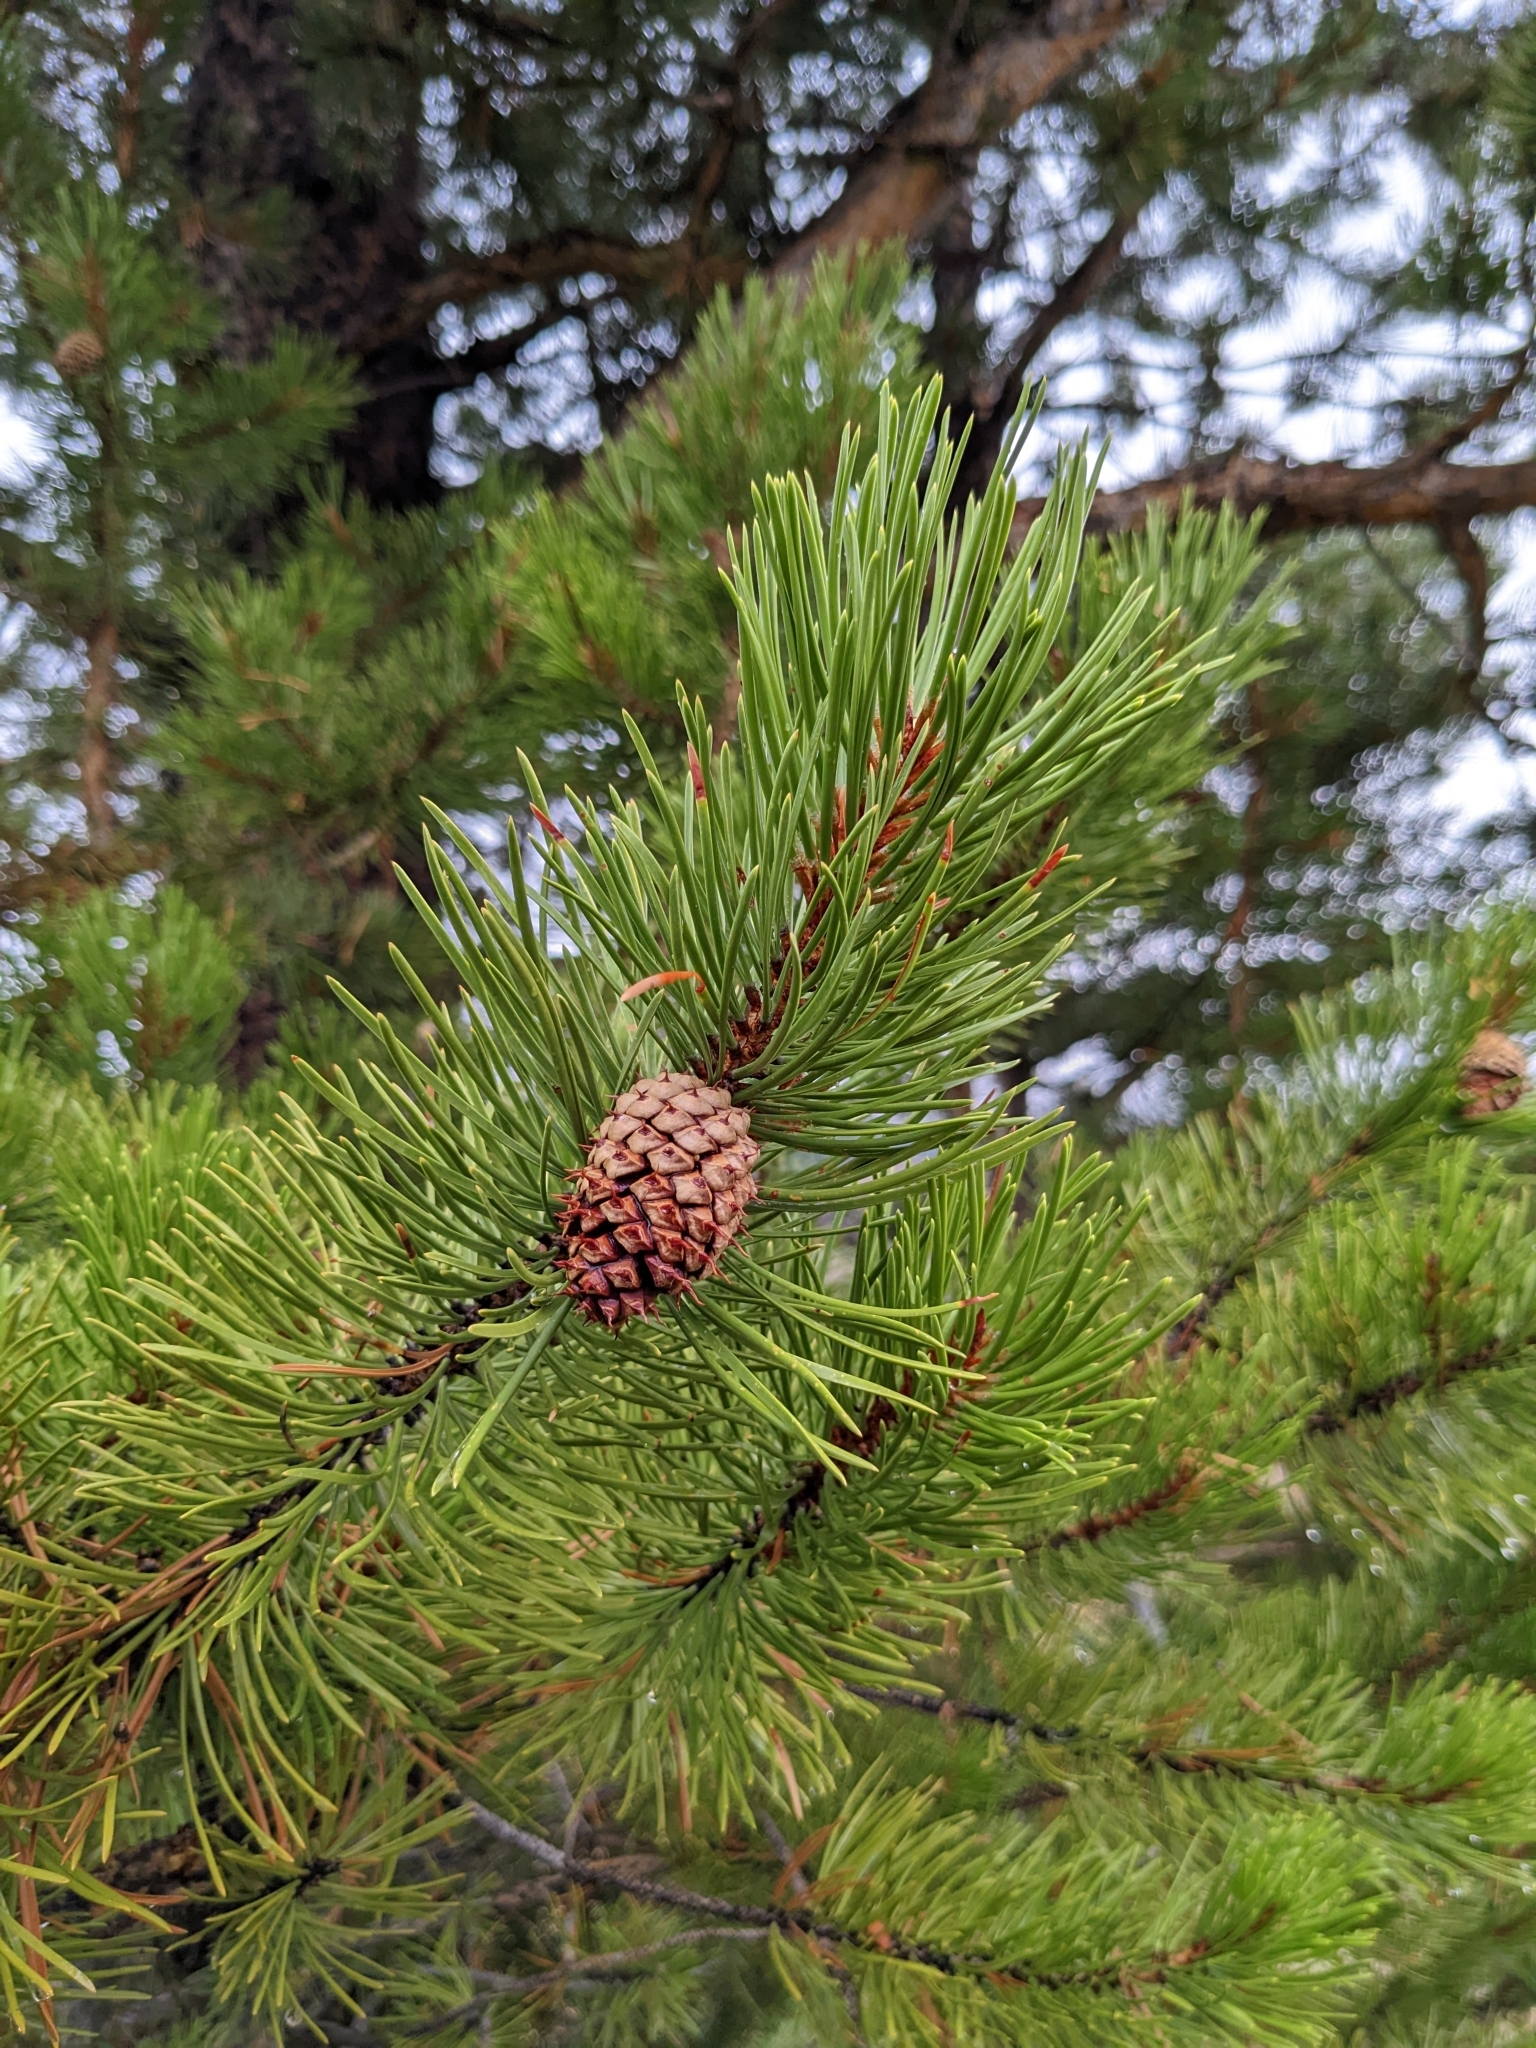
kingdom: Plantae
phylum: Tracheophyta
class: Pinopsida
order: Pinales
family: Pinaceae
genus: Pinus
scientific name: Pinus contorta
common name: Lodgepole pine
